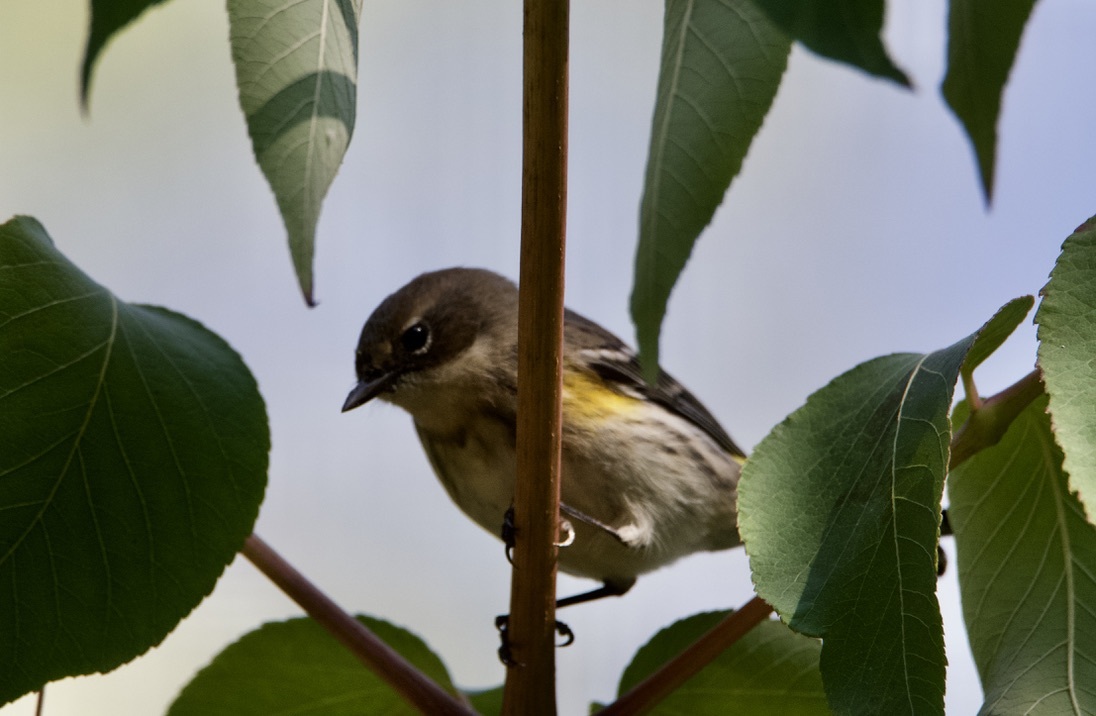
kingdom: Animalia
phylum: Chordata
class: Aves
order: Passeriformes
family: Parulidae
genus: Setophaga
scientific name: Setophaga coronata
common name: Myrtle warbler
